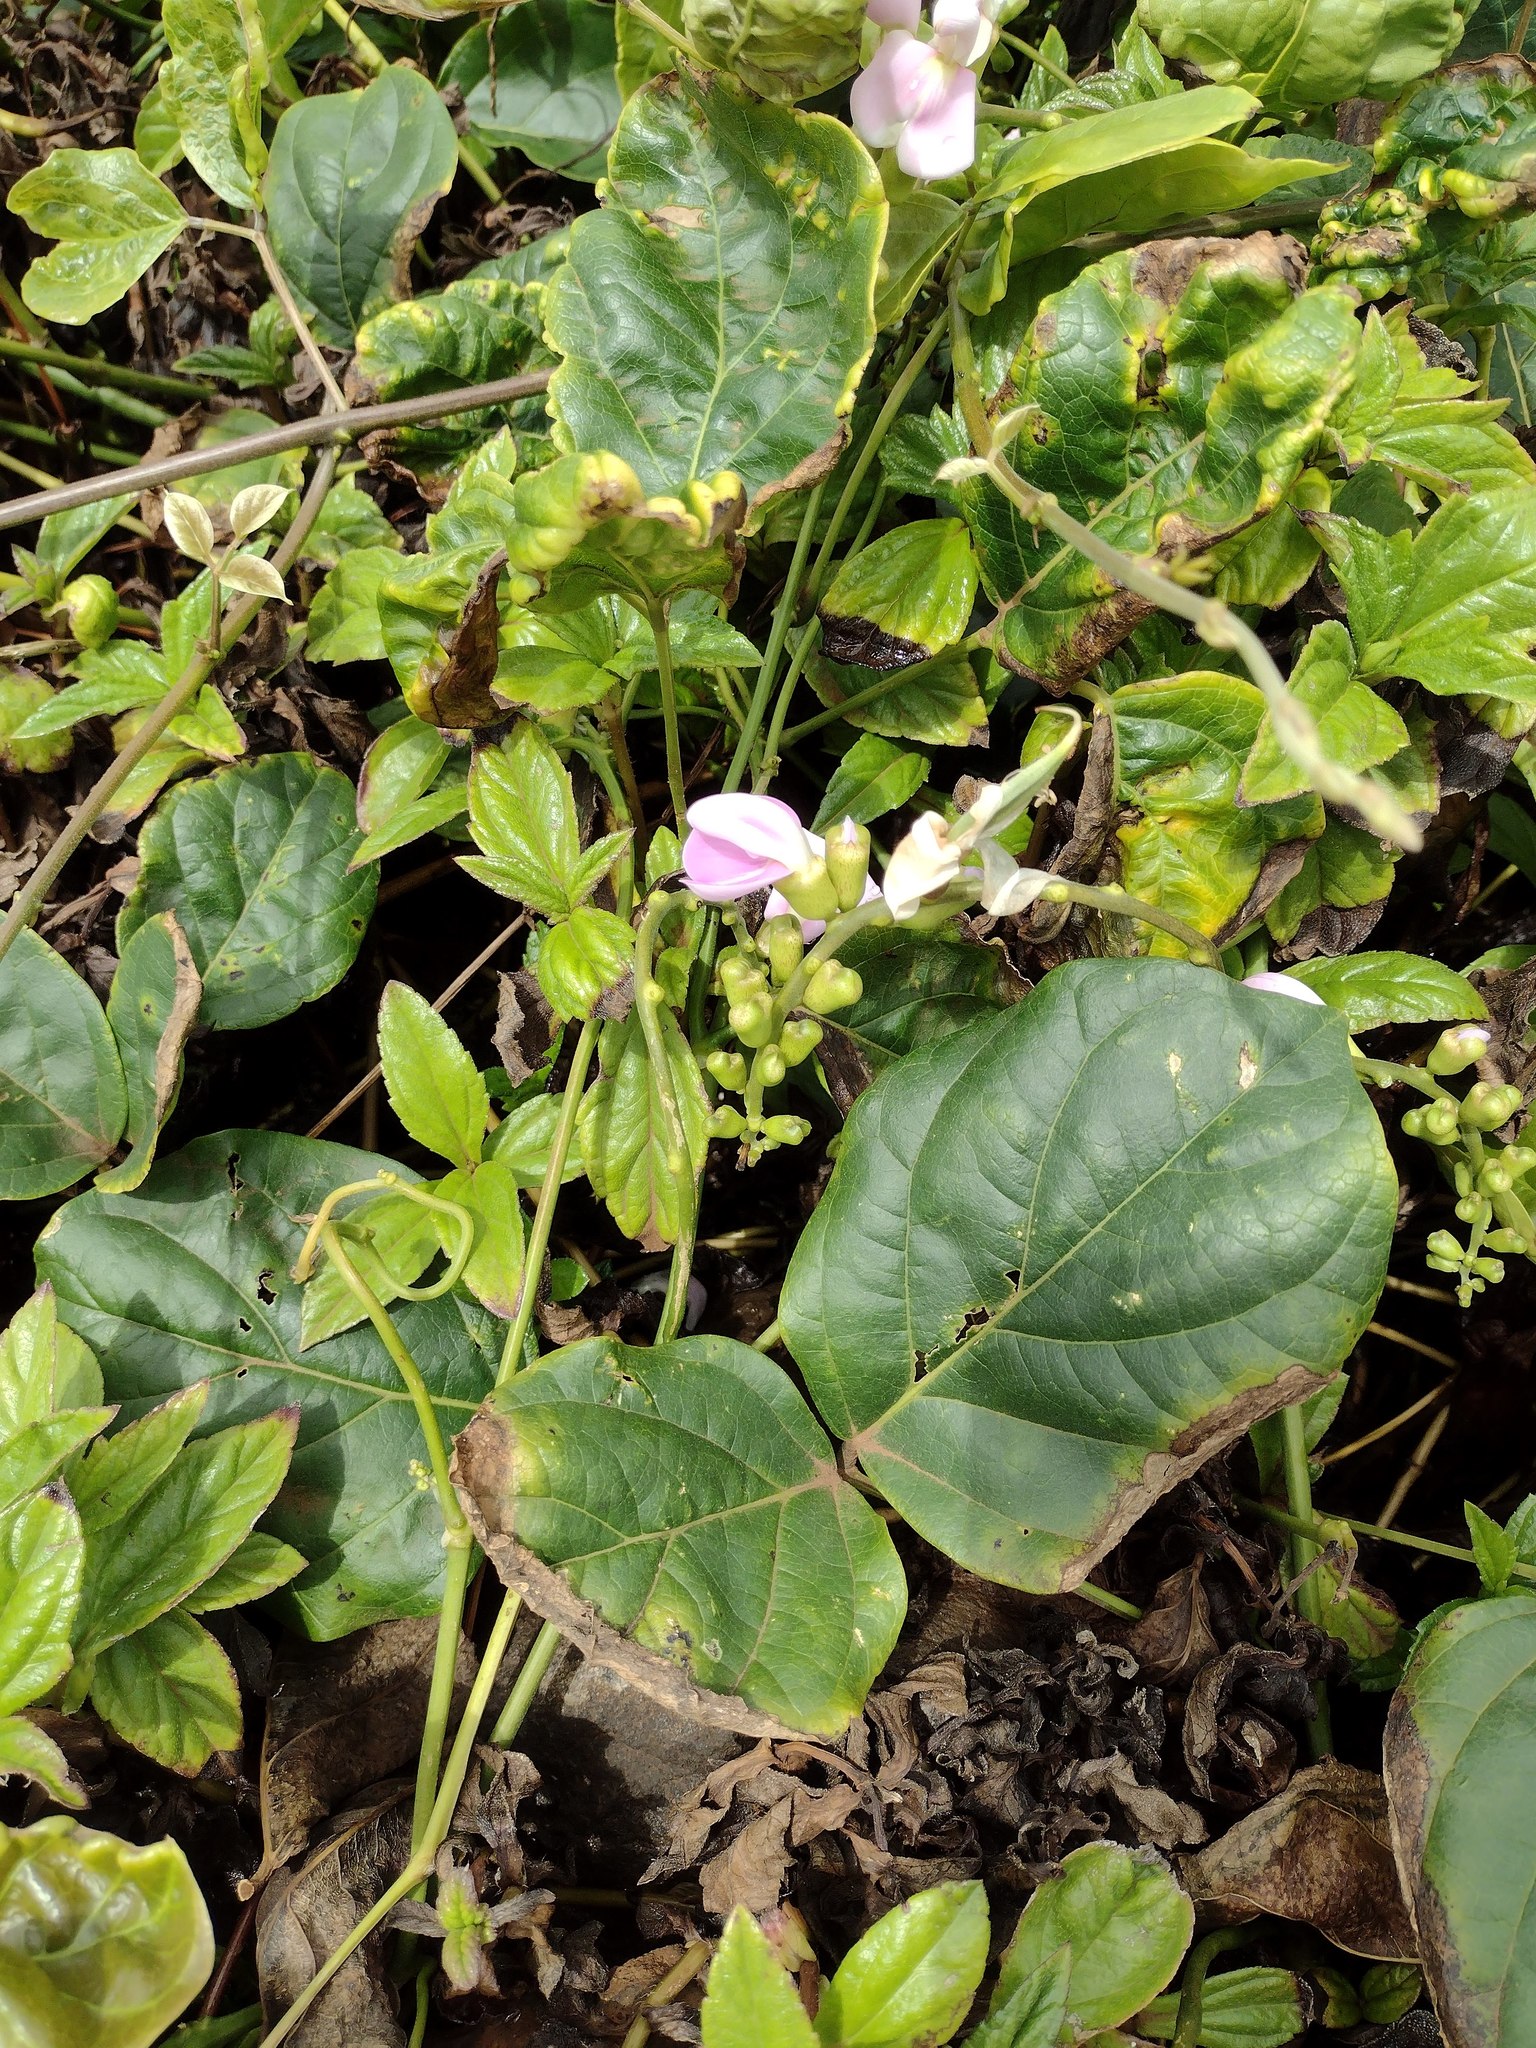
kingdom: Plantae
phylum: Tracheophyta
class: Magnoliopsida
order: Fabales
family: Fabaceae
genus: Canavalia
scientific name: Canavalia cathartica
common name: Maunaloa
